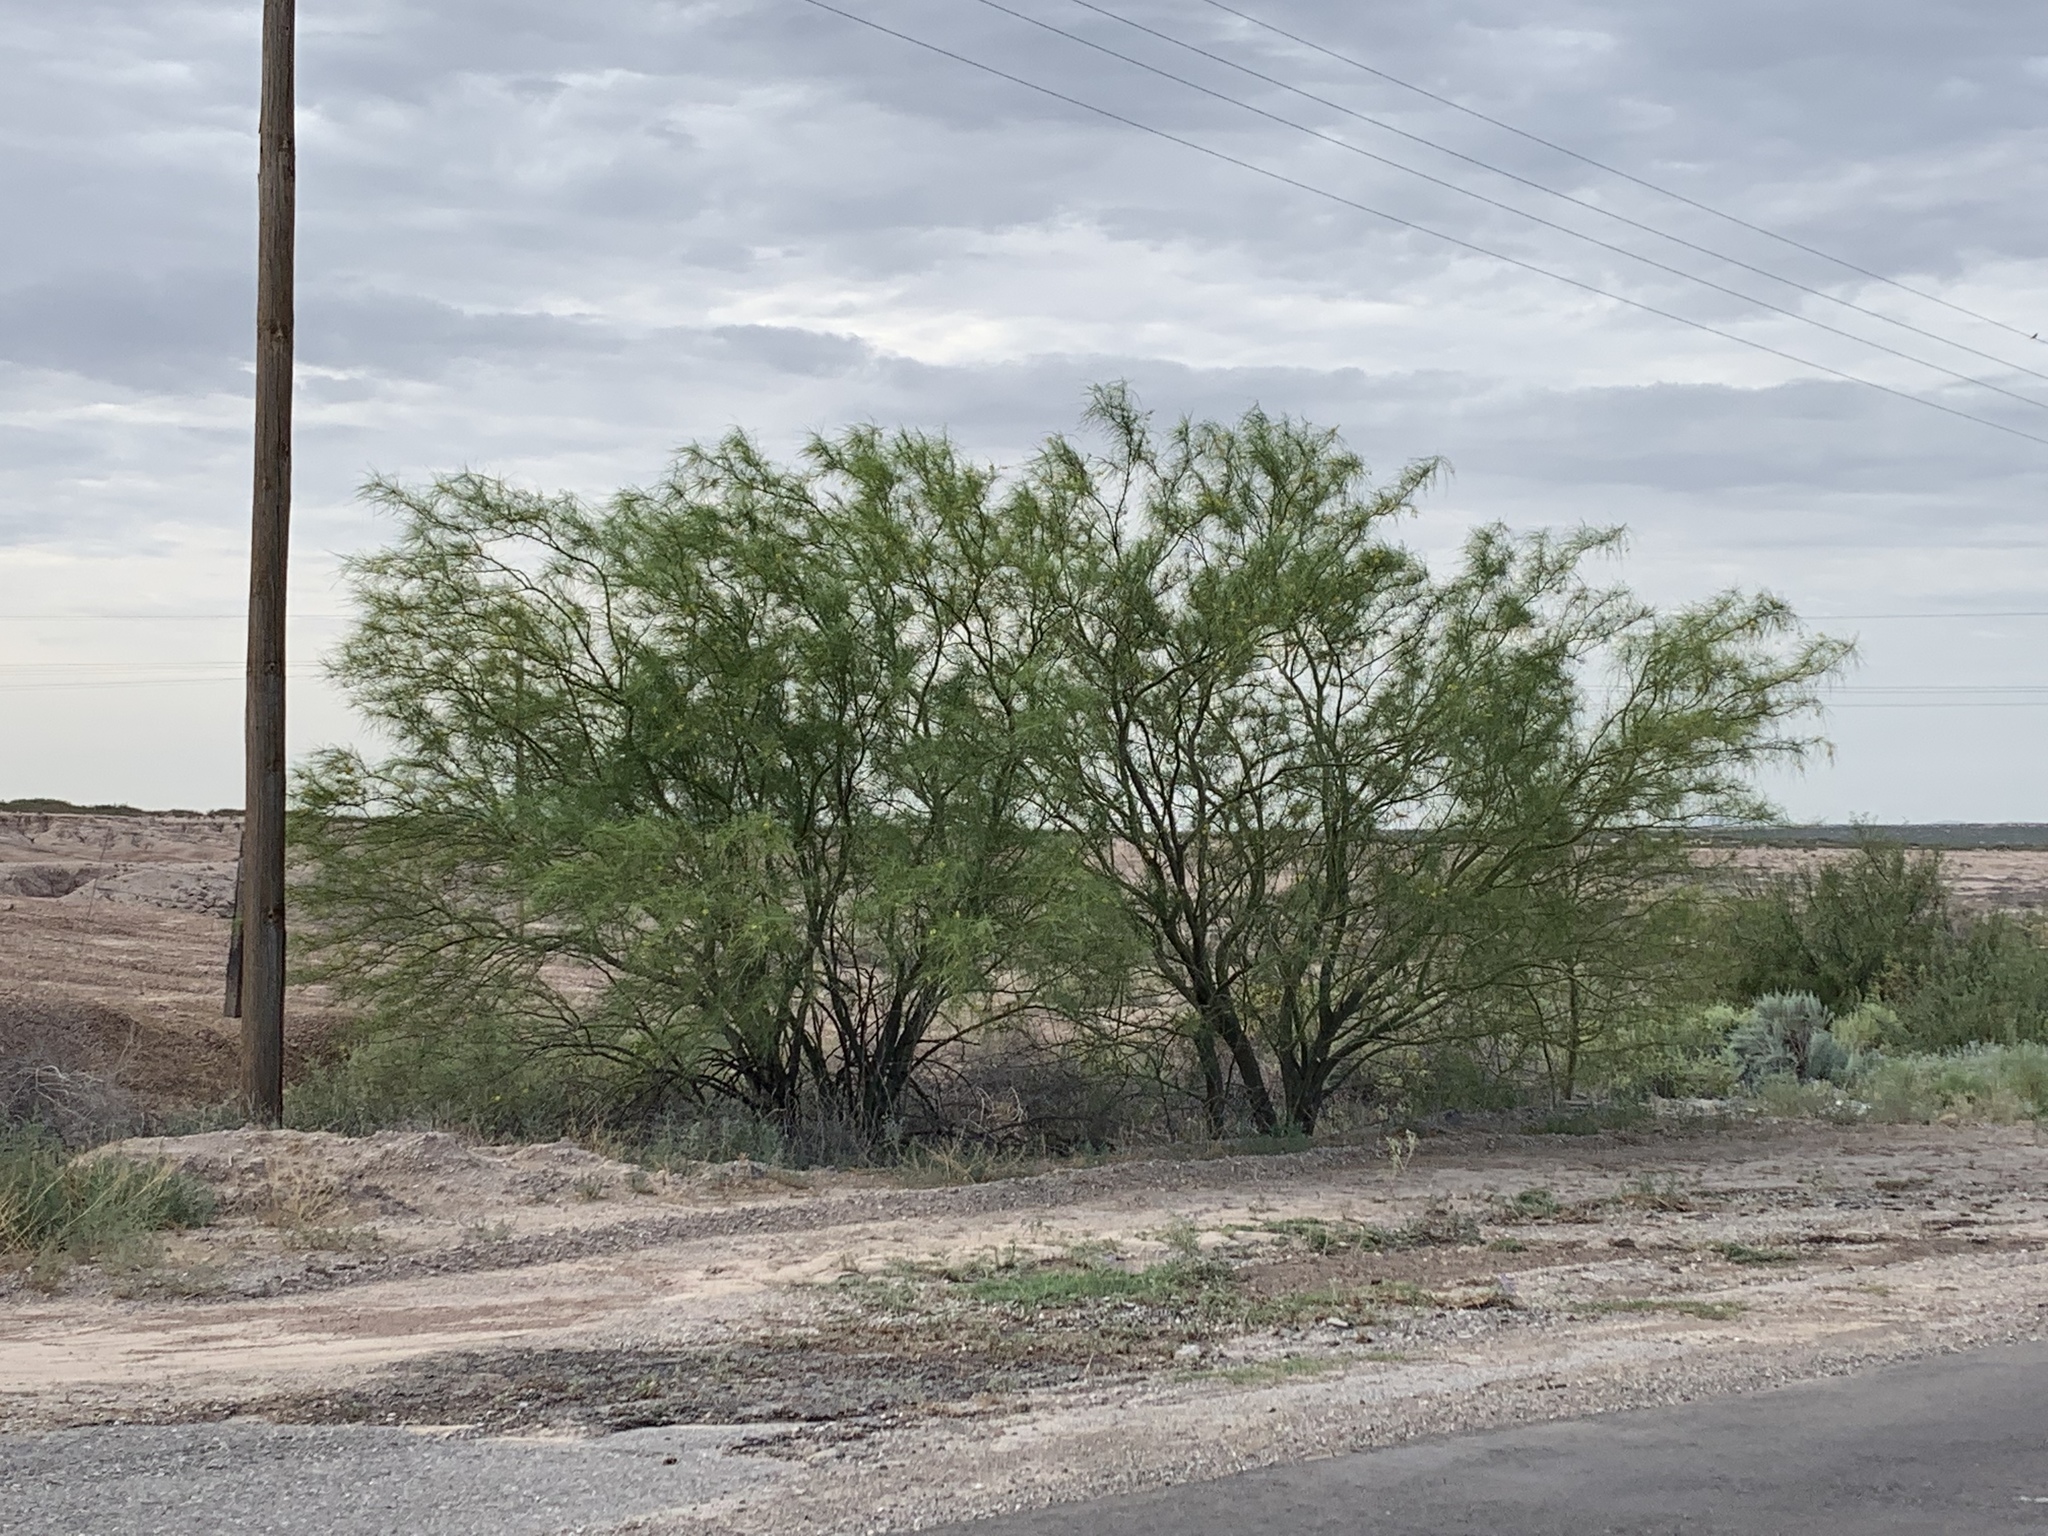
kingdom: Plantae
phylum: Tracheophyta
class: Magnoliopsida
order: Fabales
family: Fabaceae
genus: Parkinsonia
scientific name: Parkinsonia aculeata
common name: Jerusalem thorn
